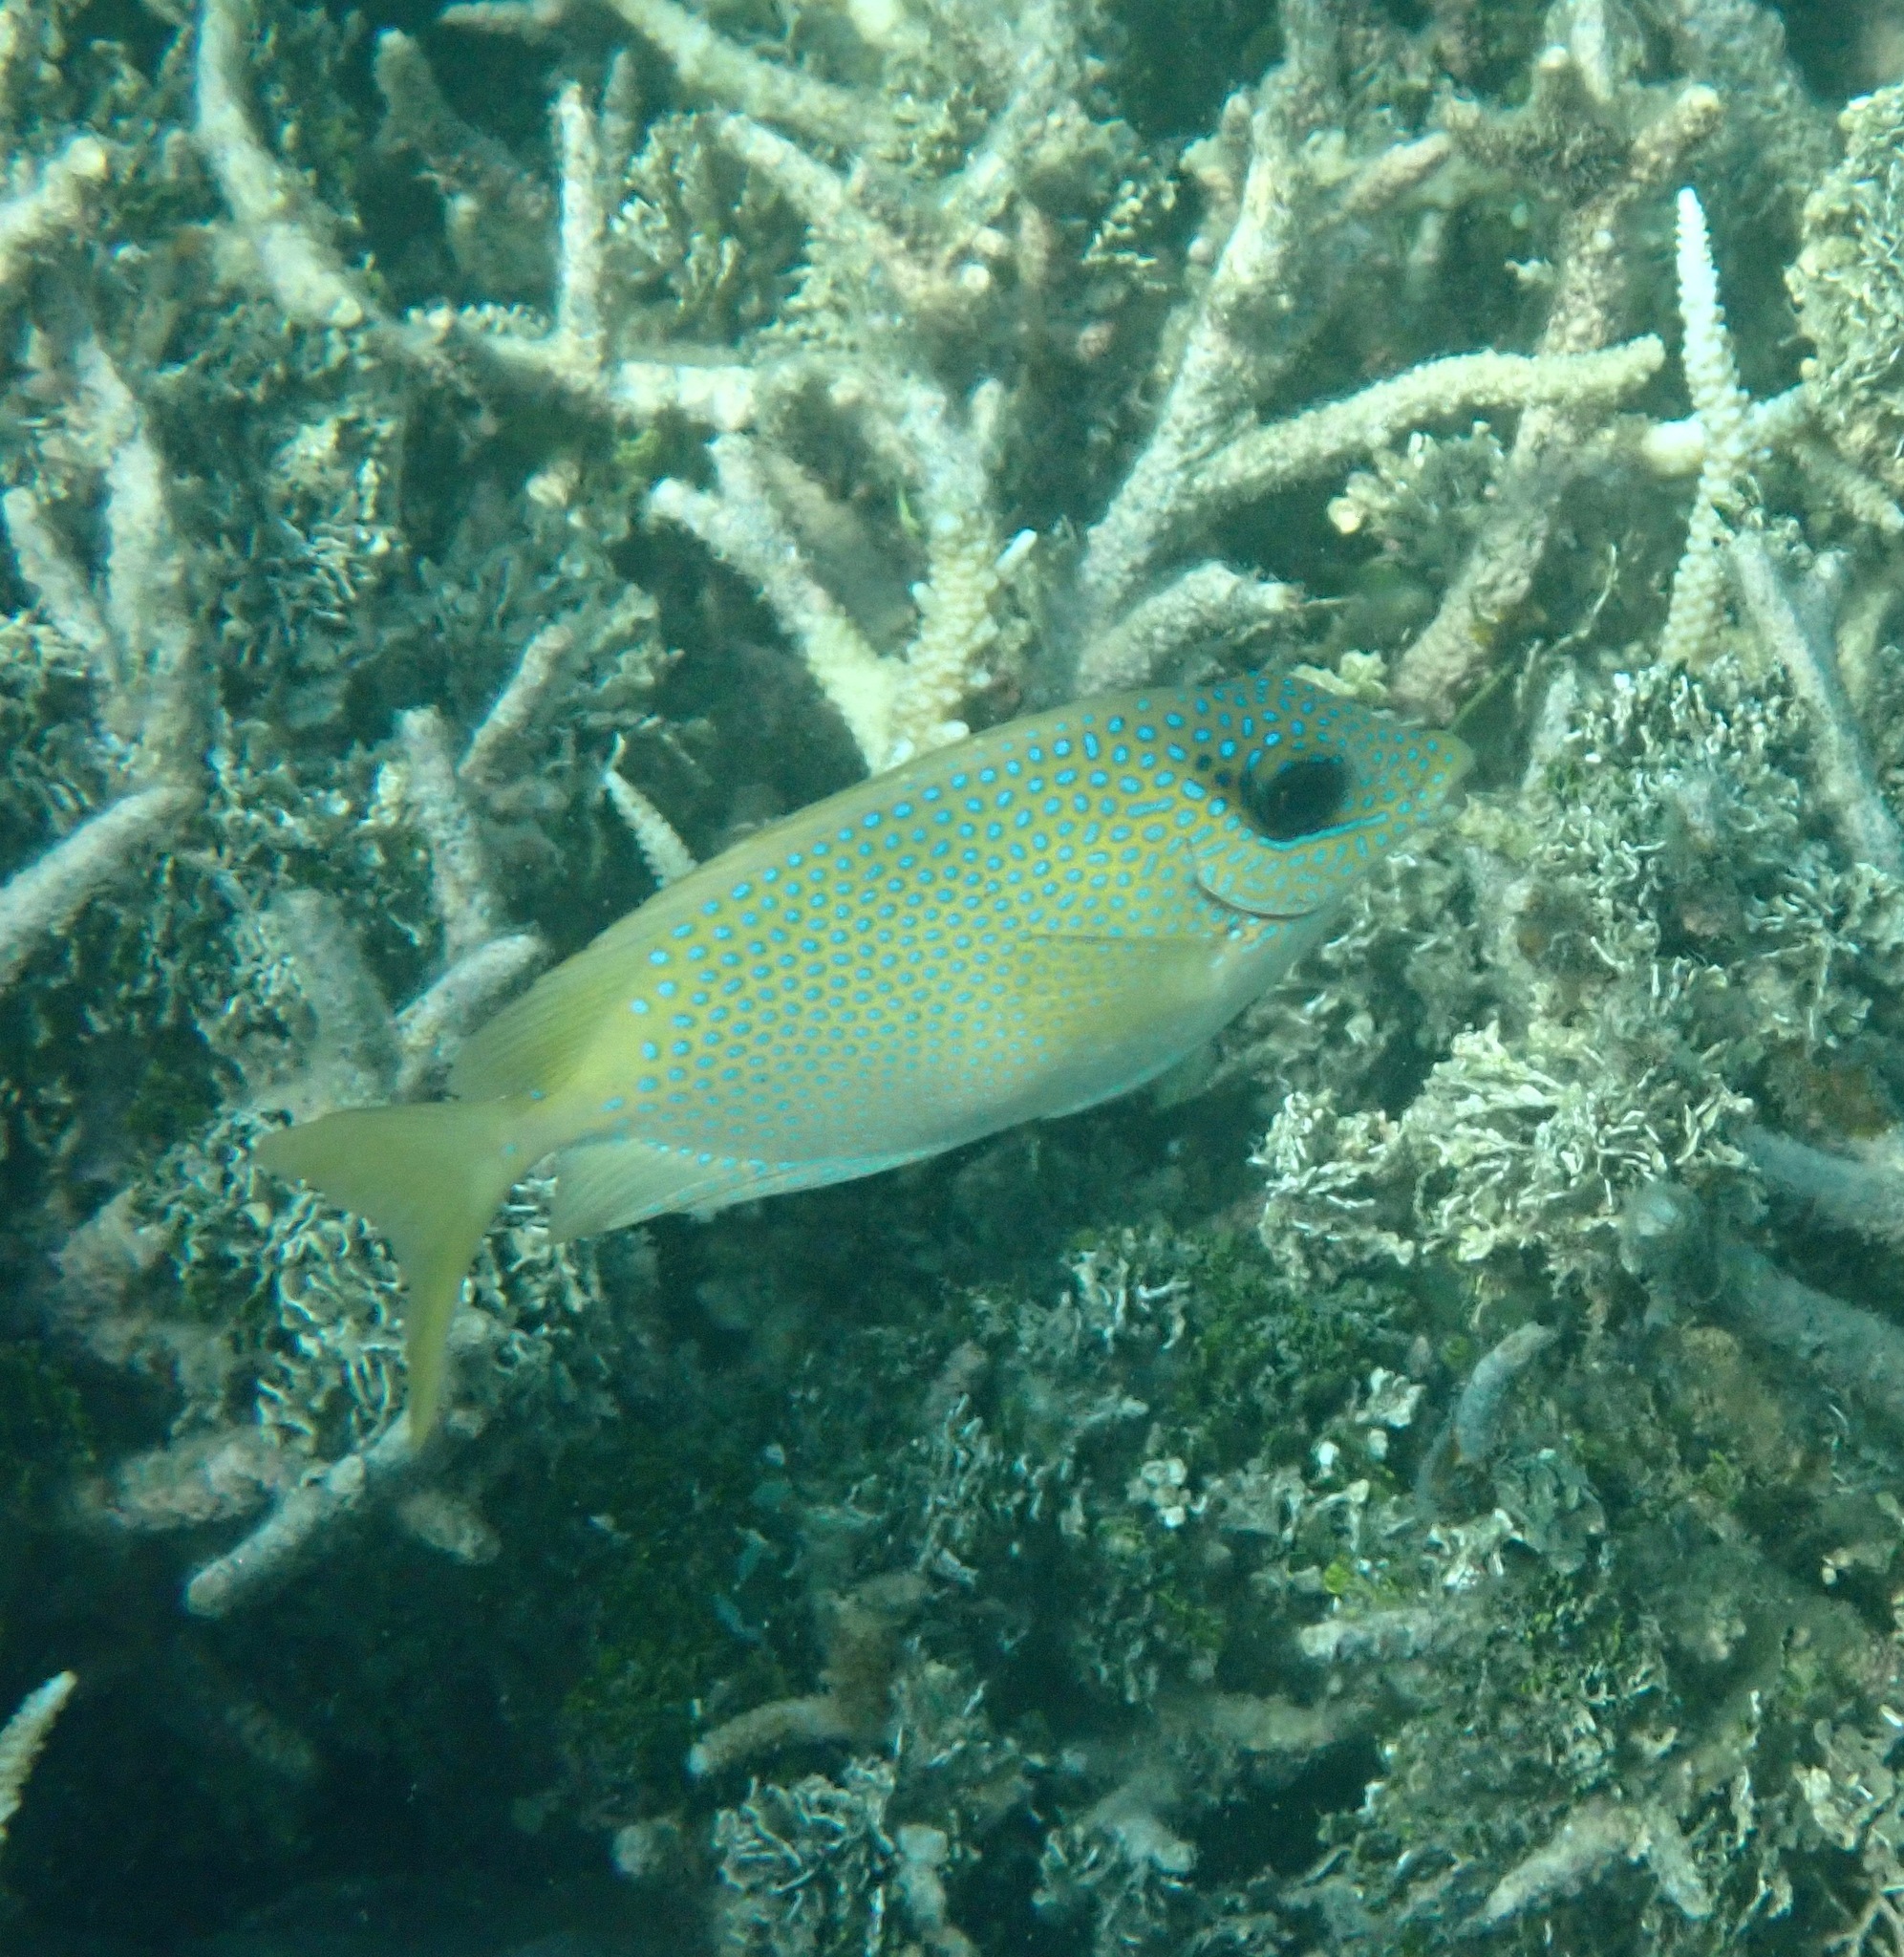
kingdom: Animalia
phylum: Chordata
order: Perciformes
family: Siganidae
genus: Siganus
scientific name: Siganus corallinus
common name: Coral rabbitfish
